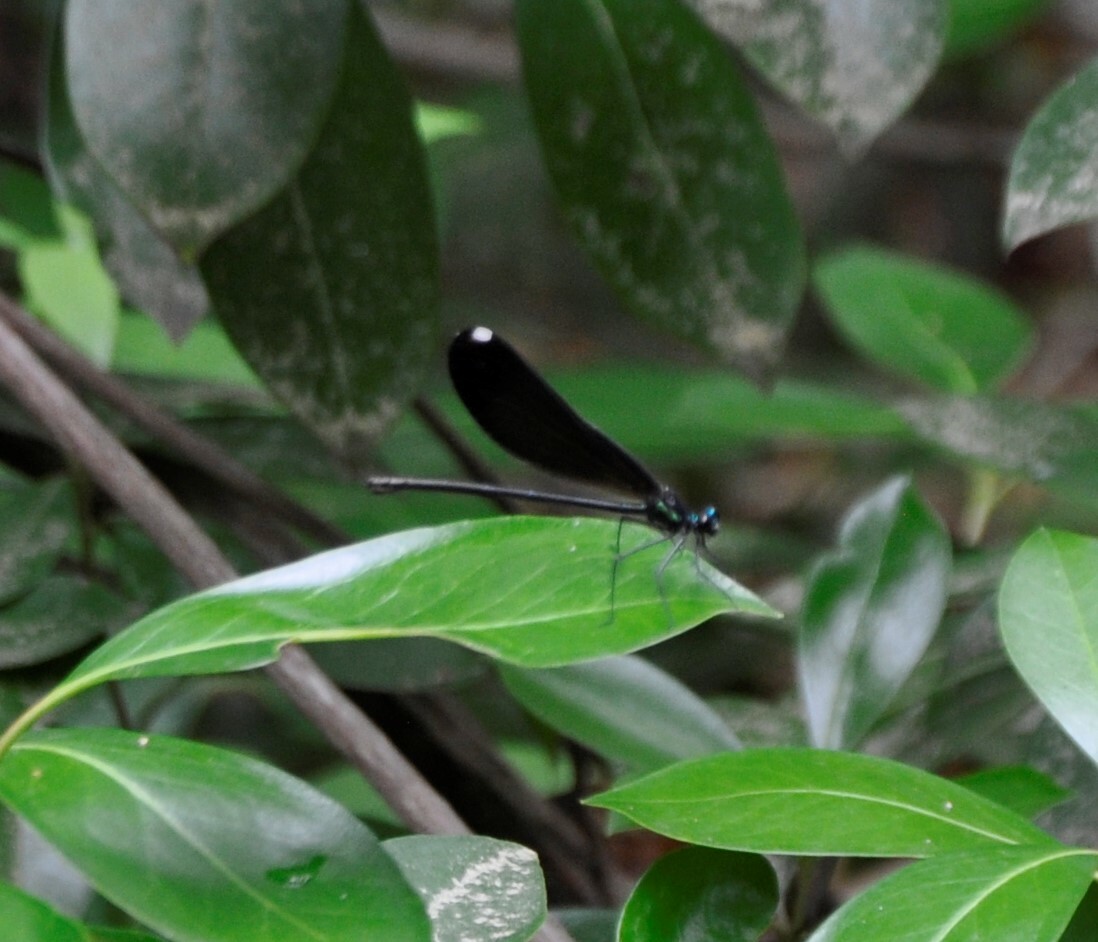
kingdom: Animalia
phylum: Arthropoda
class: Insecta
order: Odonata
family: Calopterygidae
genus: Calopteryx
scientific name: Calopteryx maculata
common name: Ebony jewelwing
